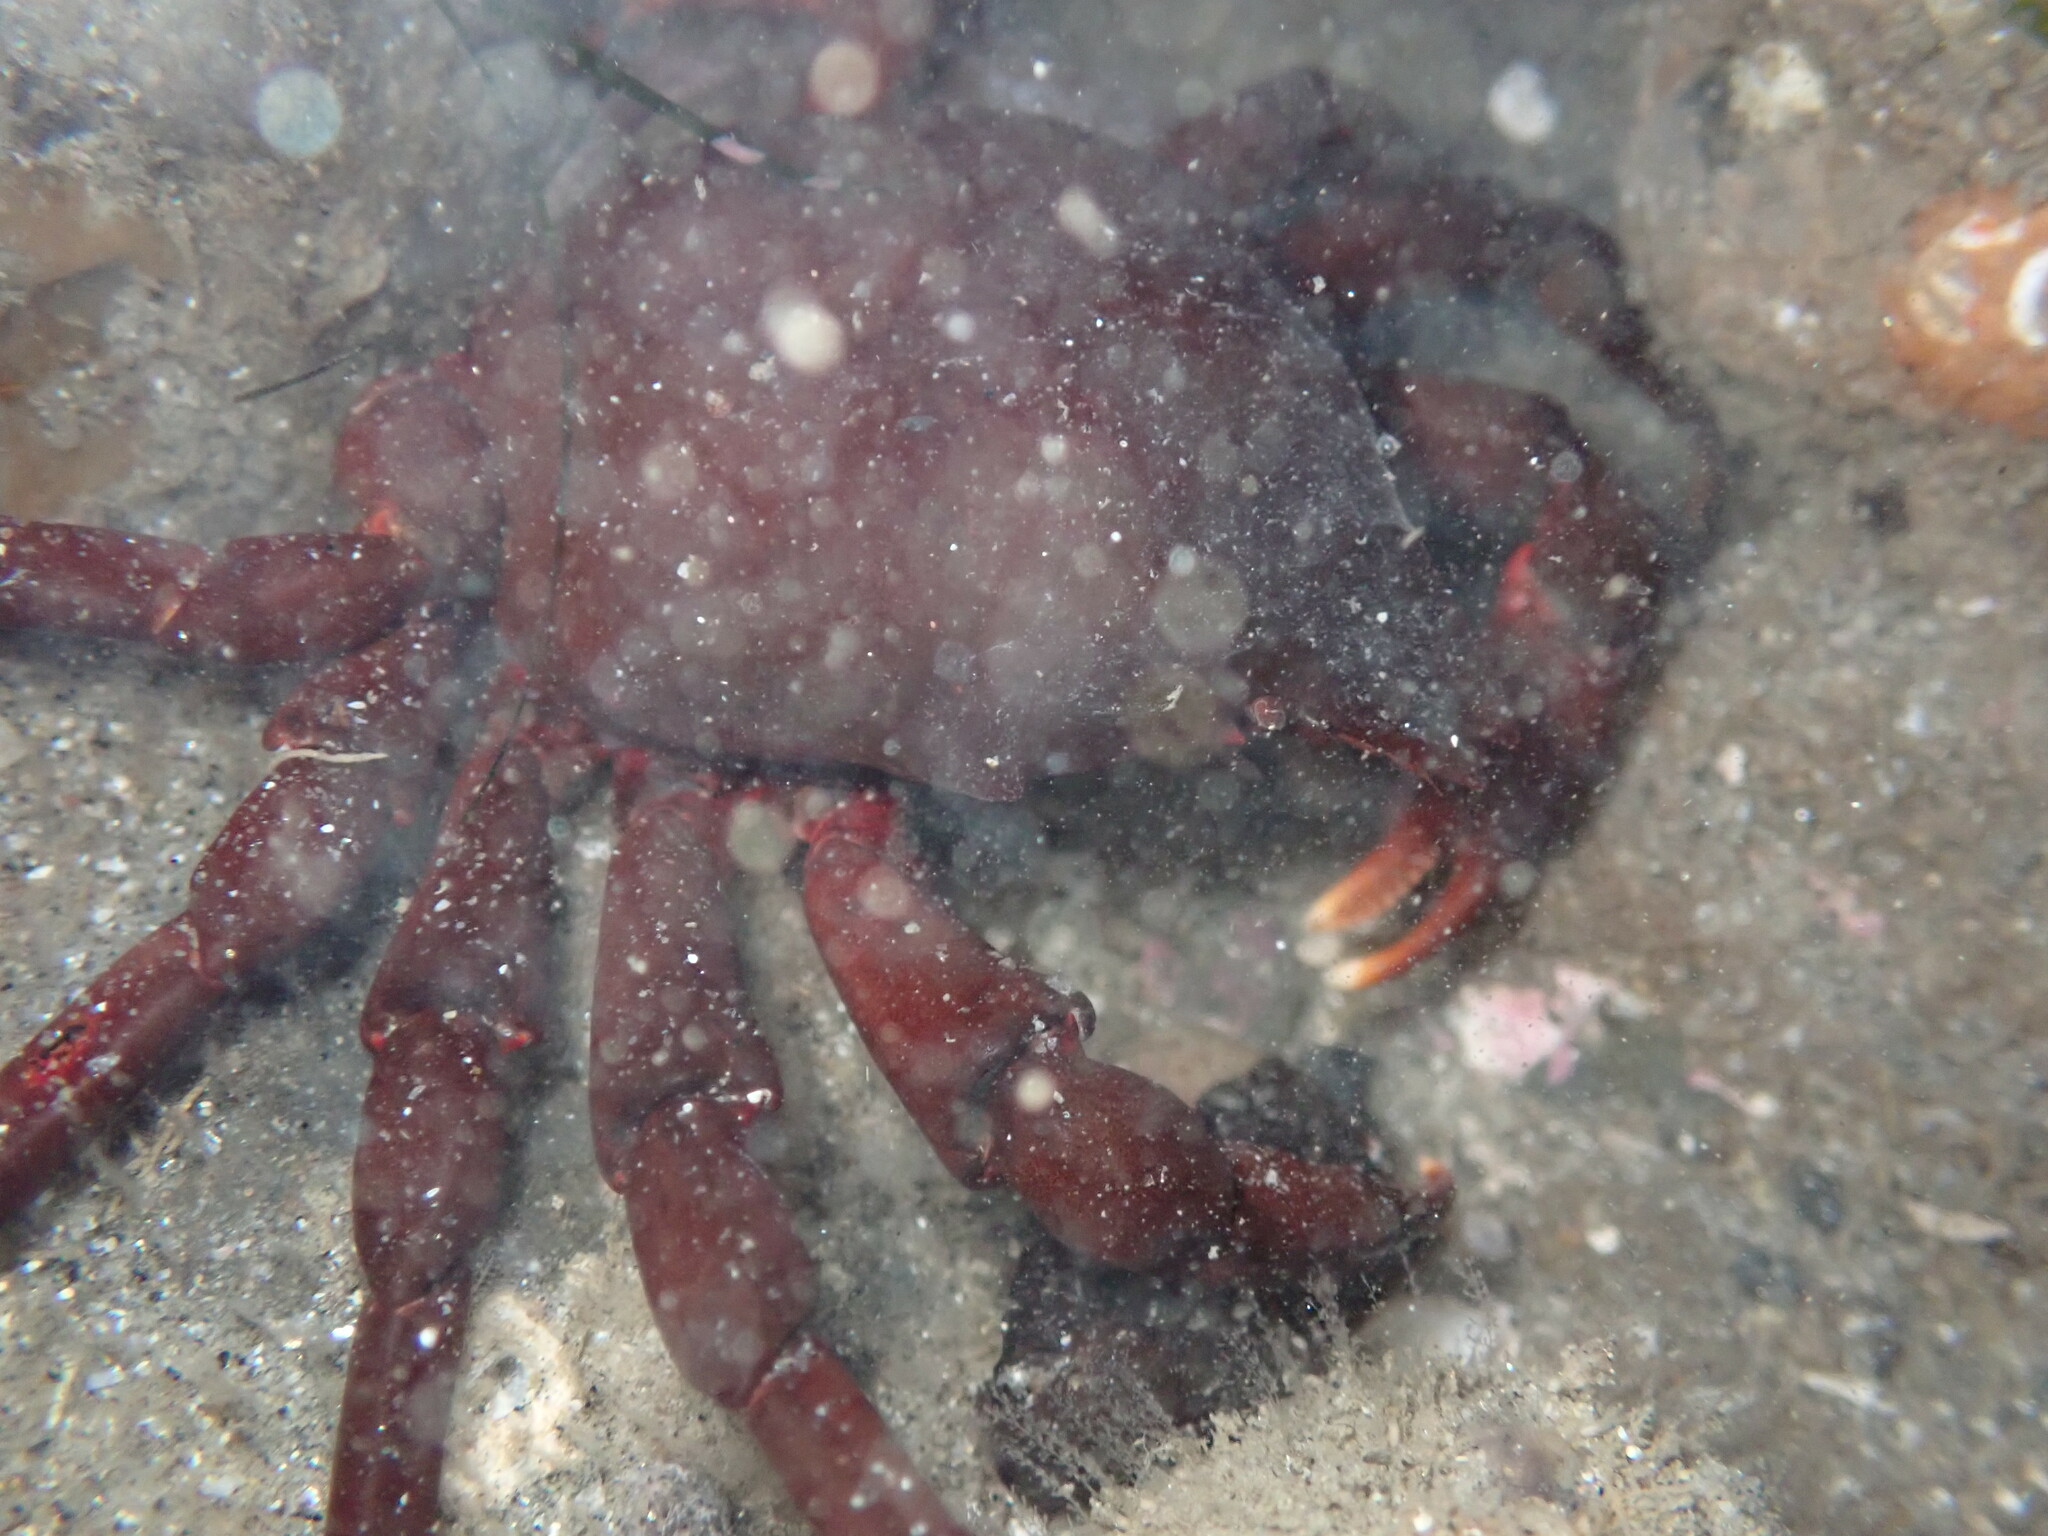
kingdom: Animalia
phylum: Arthropoda
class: Malacostraca
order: Decapoda
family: Epialtidae
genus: Taliepus
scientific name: Taliepus nuttallii
